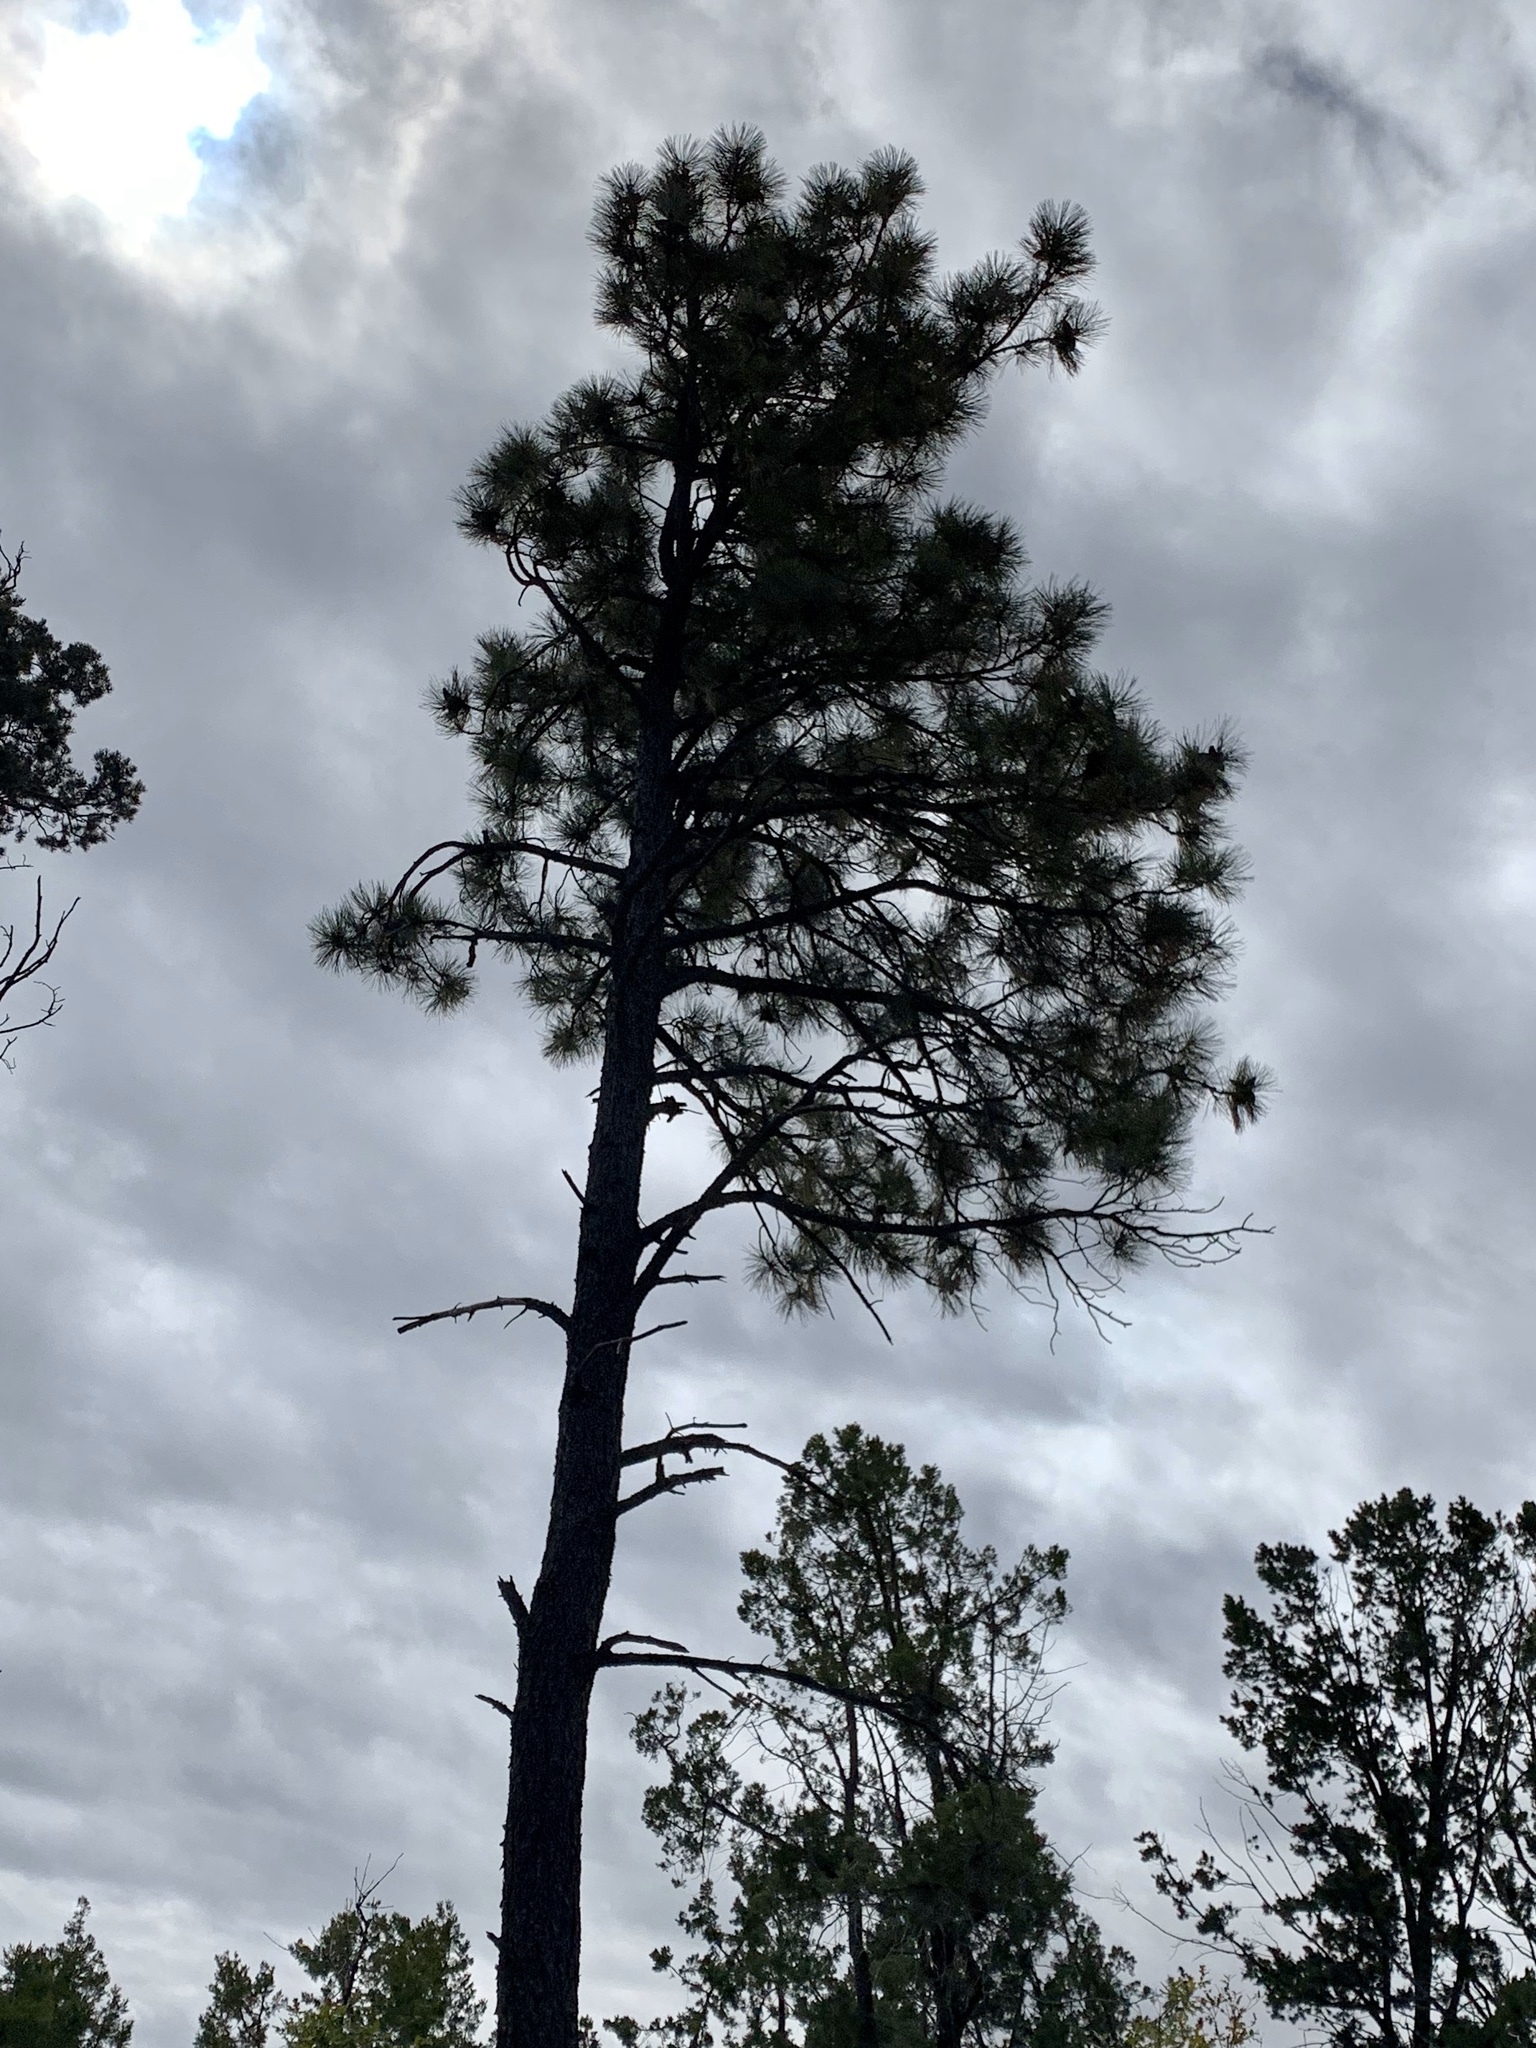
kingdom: Plantae
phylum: Tracheophyta
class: Pinopsida
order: Pinales
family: Pinaceae
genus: Pinus
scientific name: Pinus ponderosa
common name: Western yellow-pine
